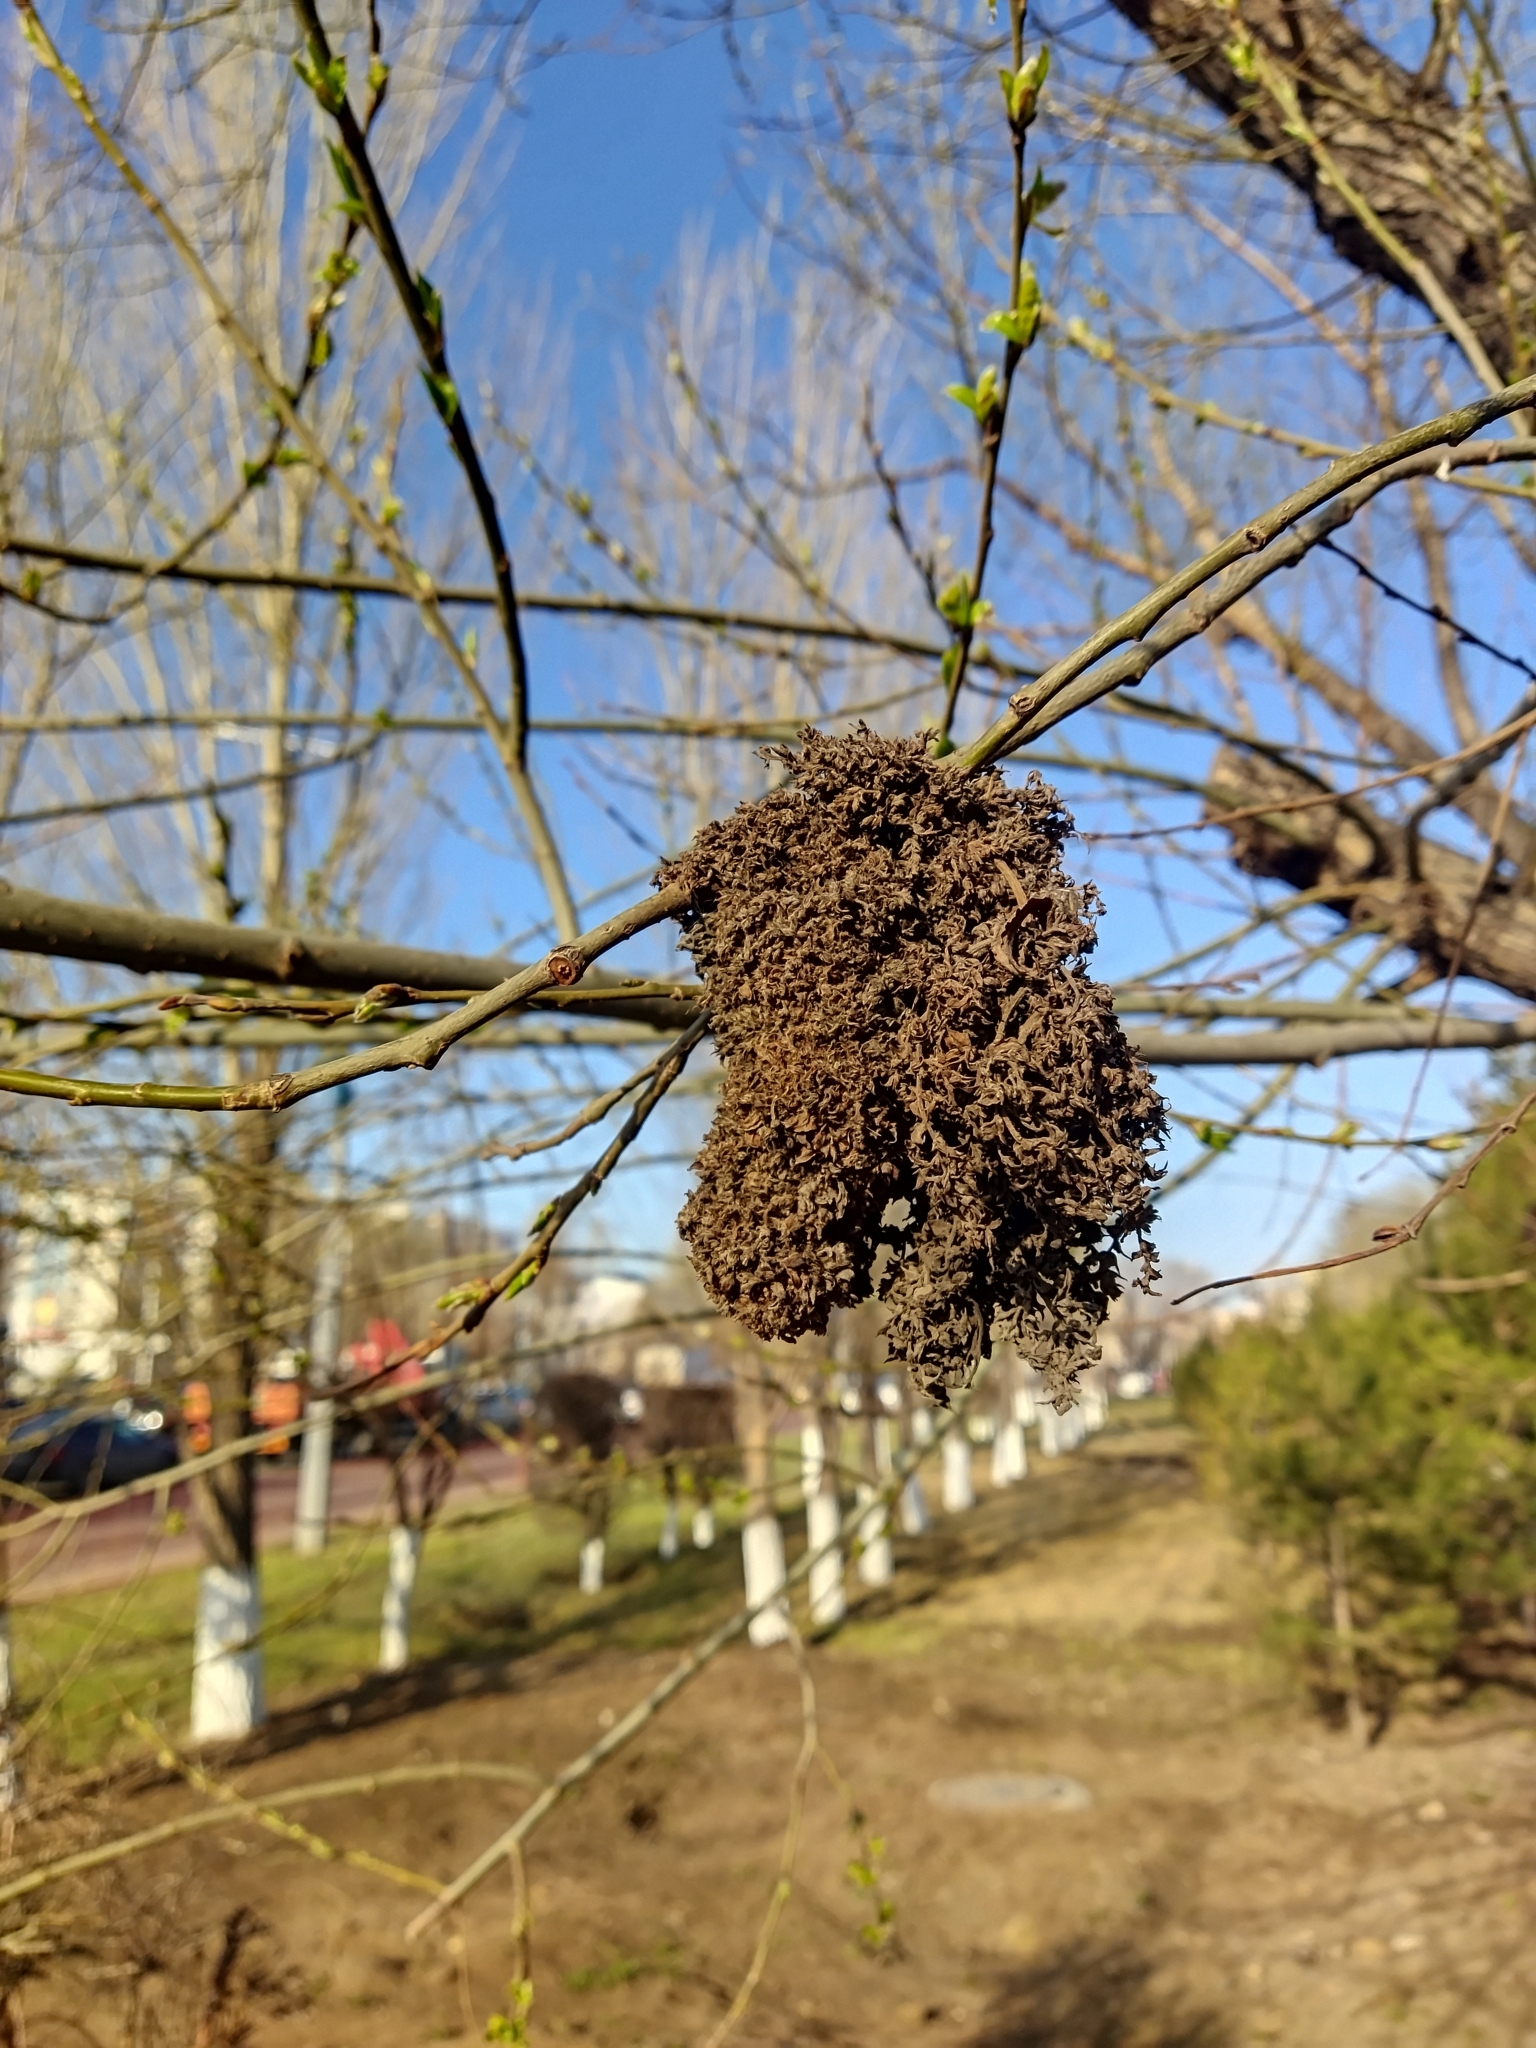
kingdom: Animalia
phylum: Arthropoda
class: Arachnida
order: Trombidiformes
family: Eriophyidae
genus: Stenacis
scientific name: Stenacis triradiatus
